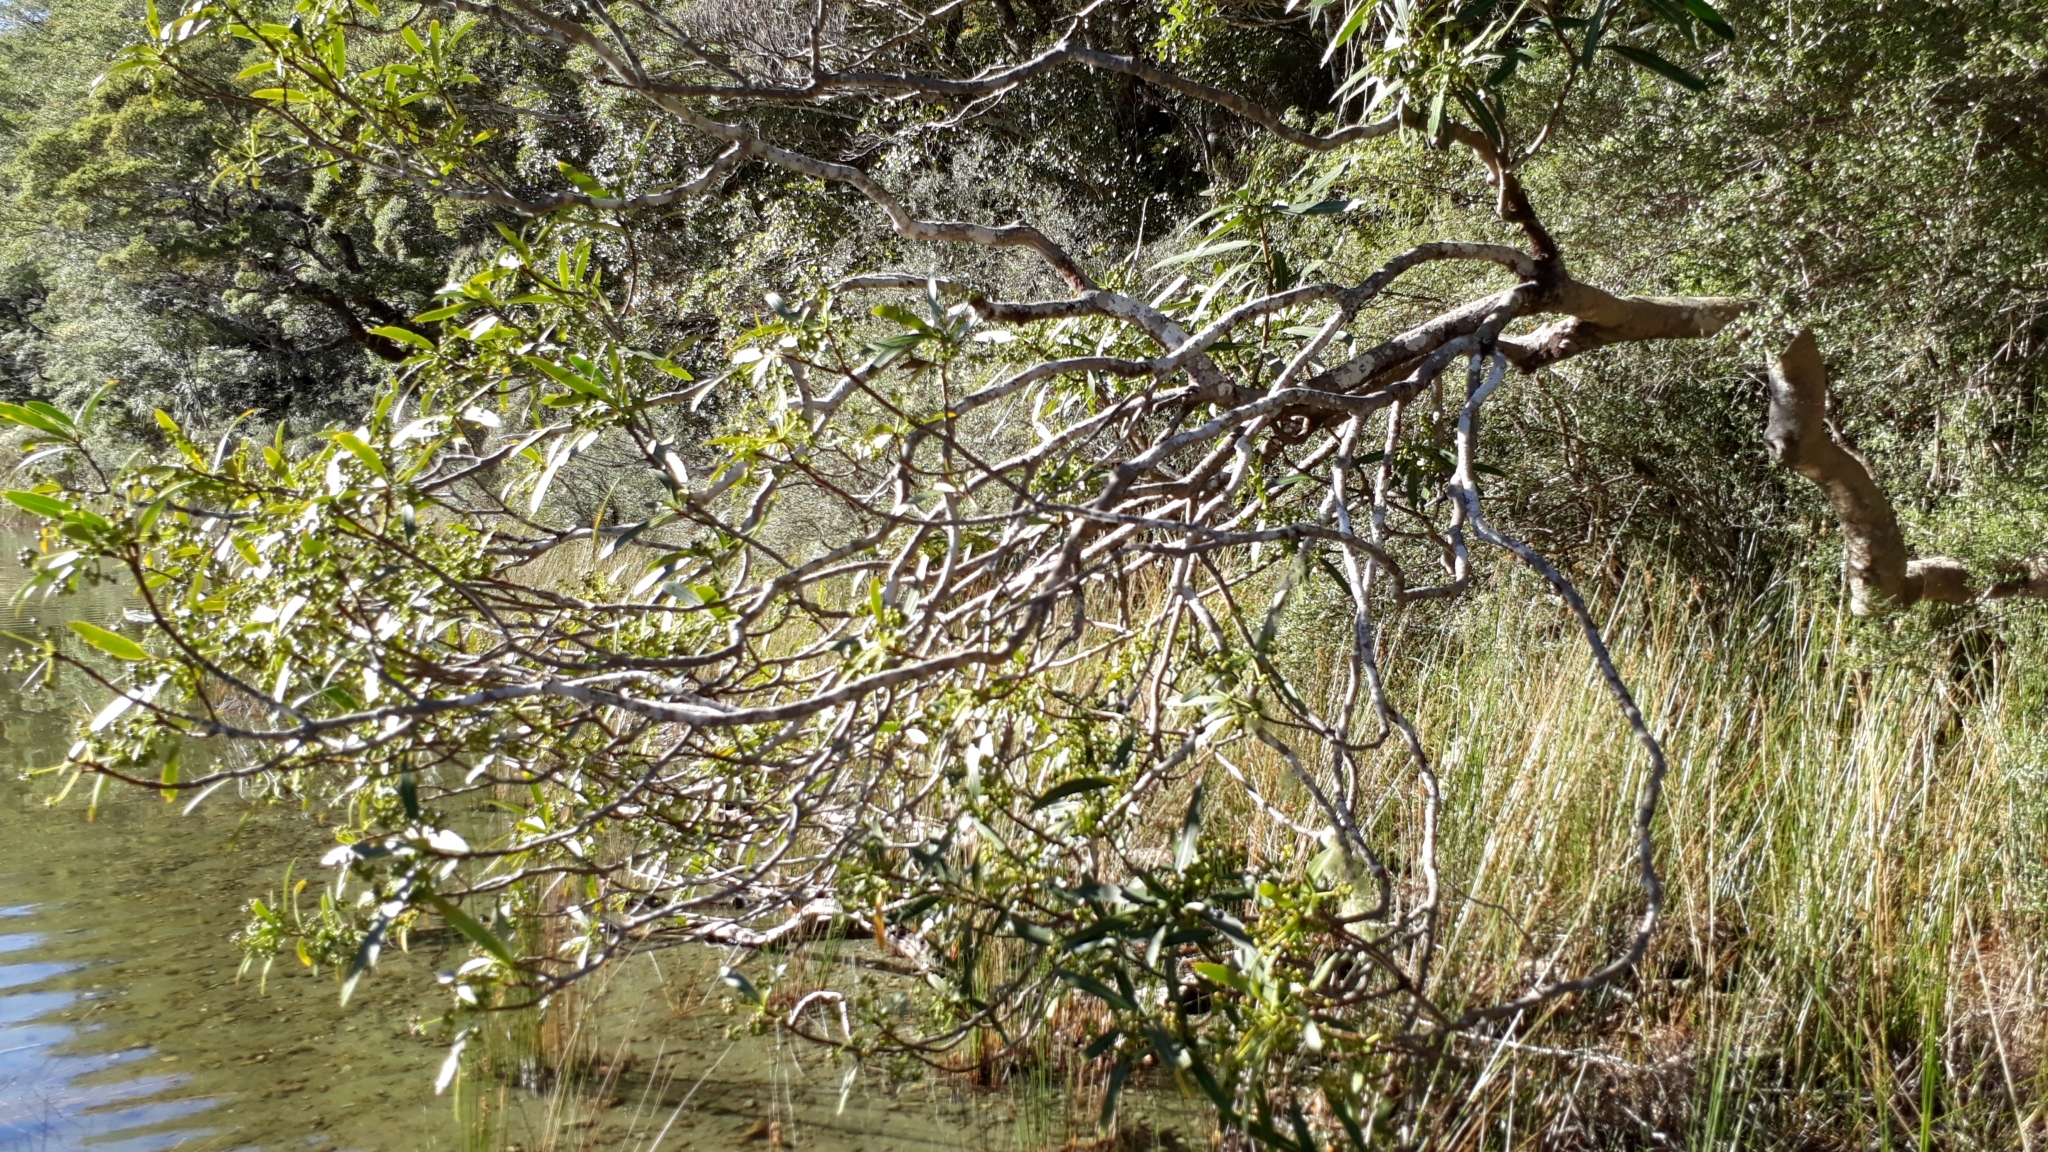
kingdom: Plantae
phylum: Tracheophyta
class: Magnoliopsida
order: Apiales
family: Araliaceae
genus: Pseudopanax
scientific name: Pseudopanax linearis
